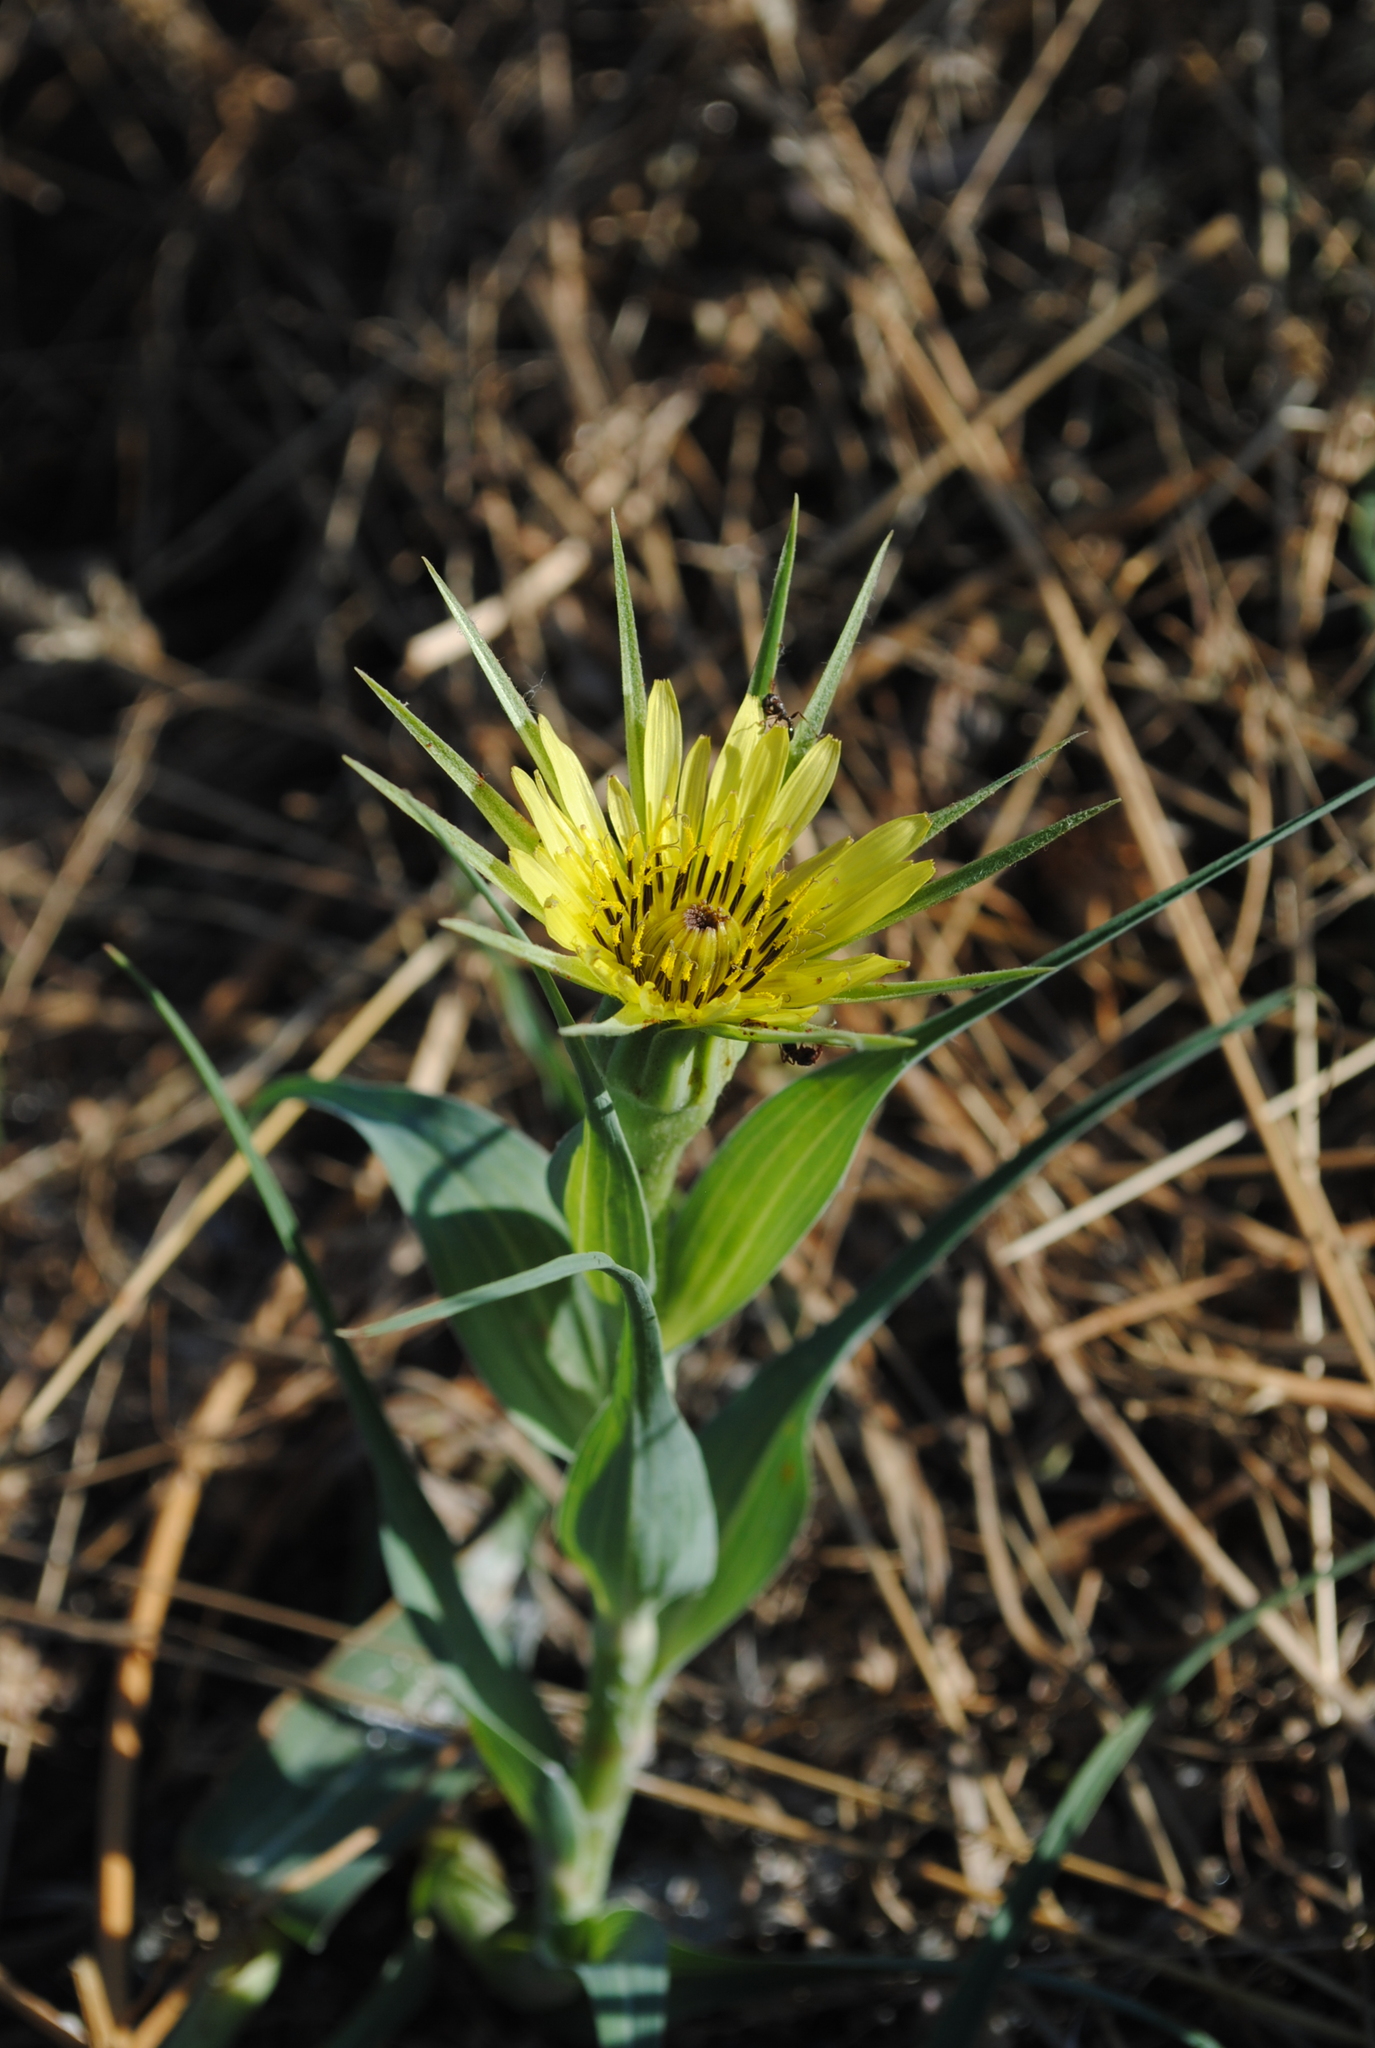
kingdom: Plantae
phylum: Tracheophyta
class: Magnoliopsida
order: Asterales
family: Asteraceae
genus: Tragopogon
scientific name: Tragopogon dubius
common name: Yellow salsify
